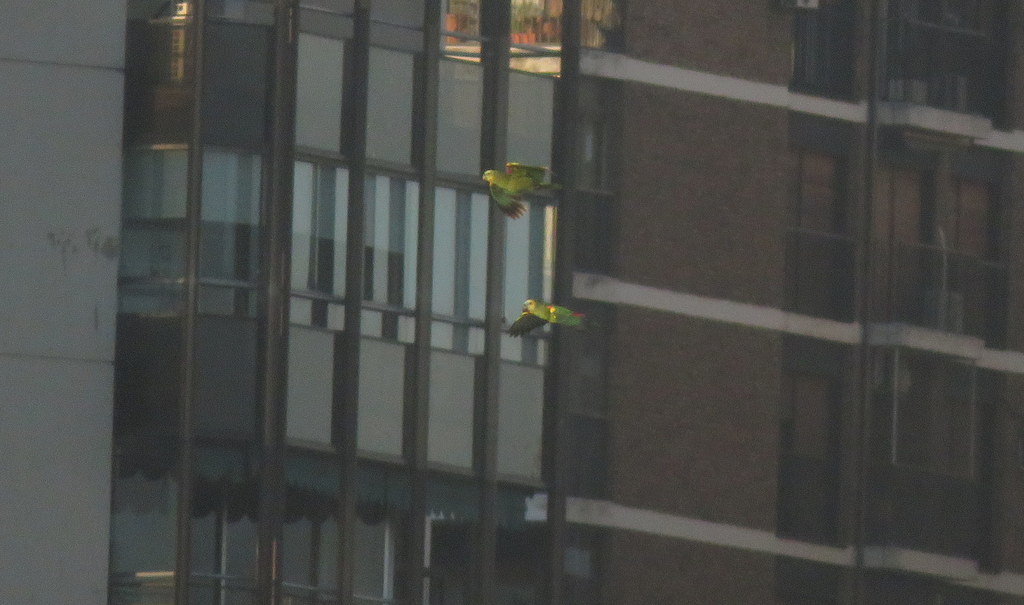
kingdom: Animalia
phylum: Chordata
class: Aves
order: Psittaciformes
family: Psittacidae
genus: Amazona
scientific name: Amazona aestiva
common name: Turquoise-fronted amazon
